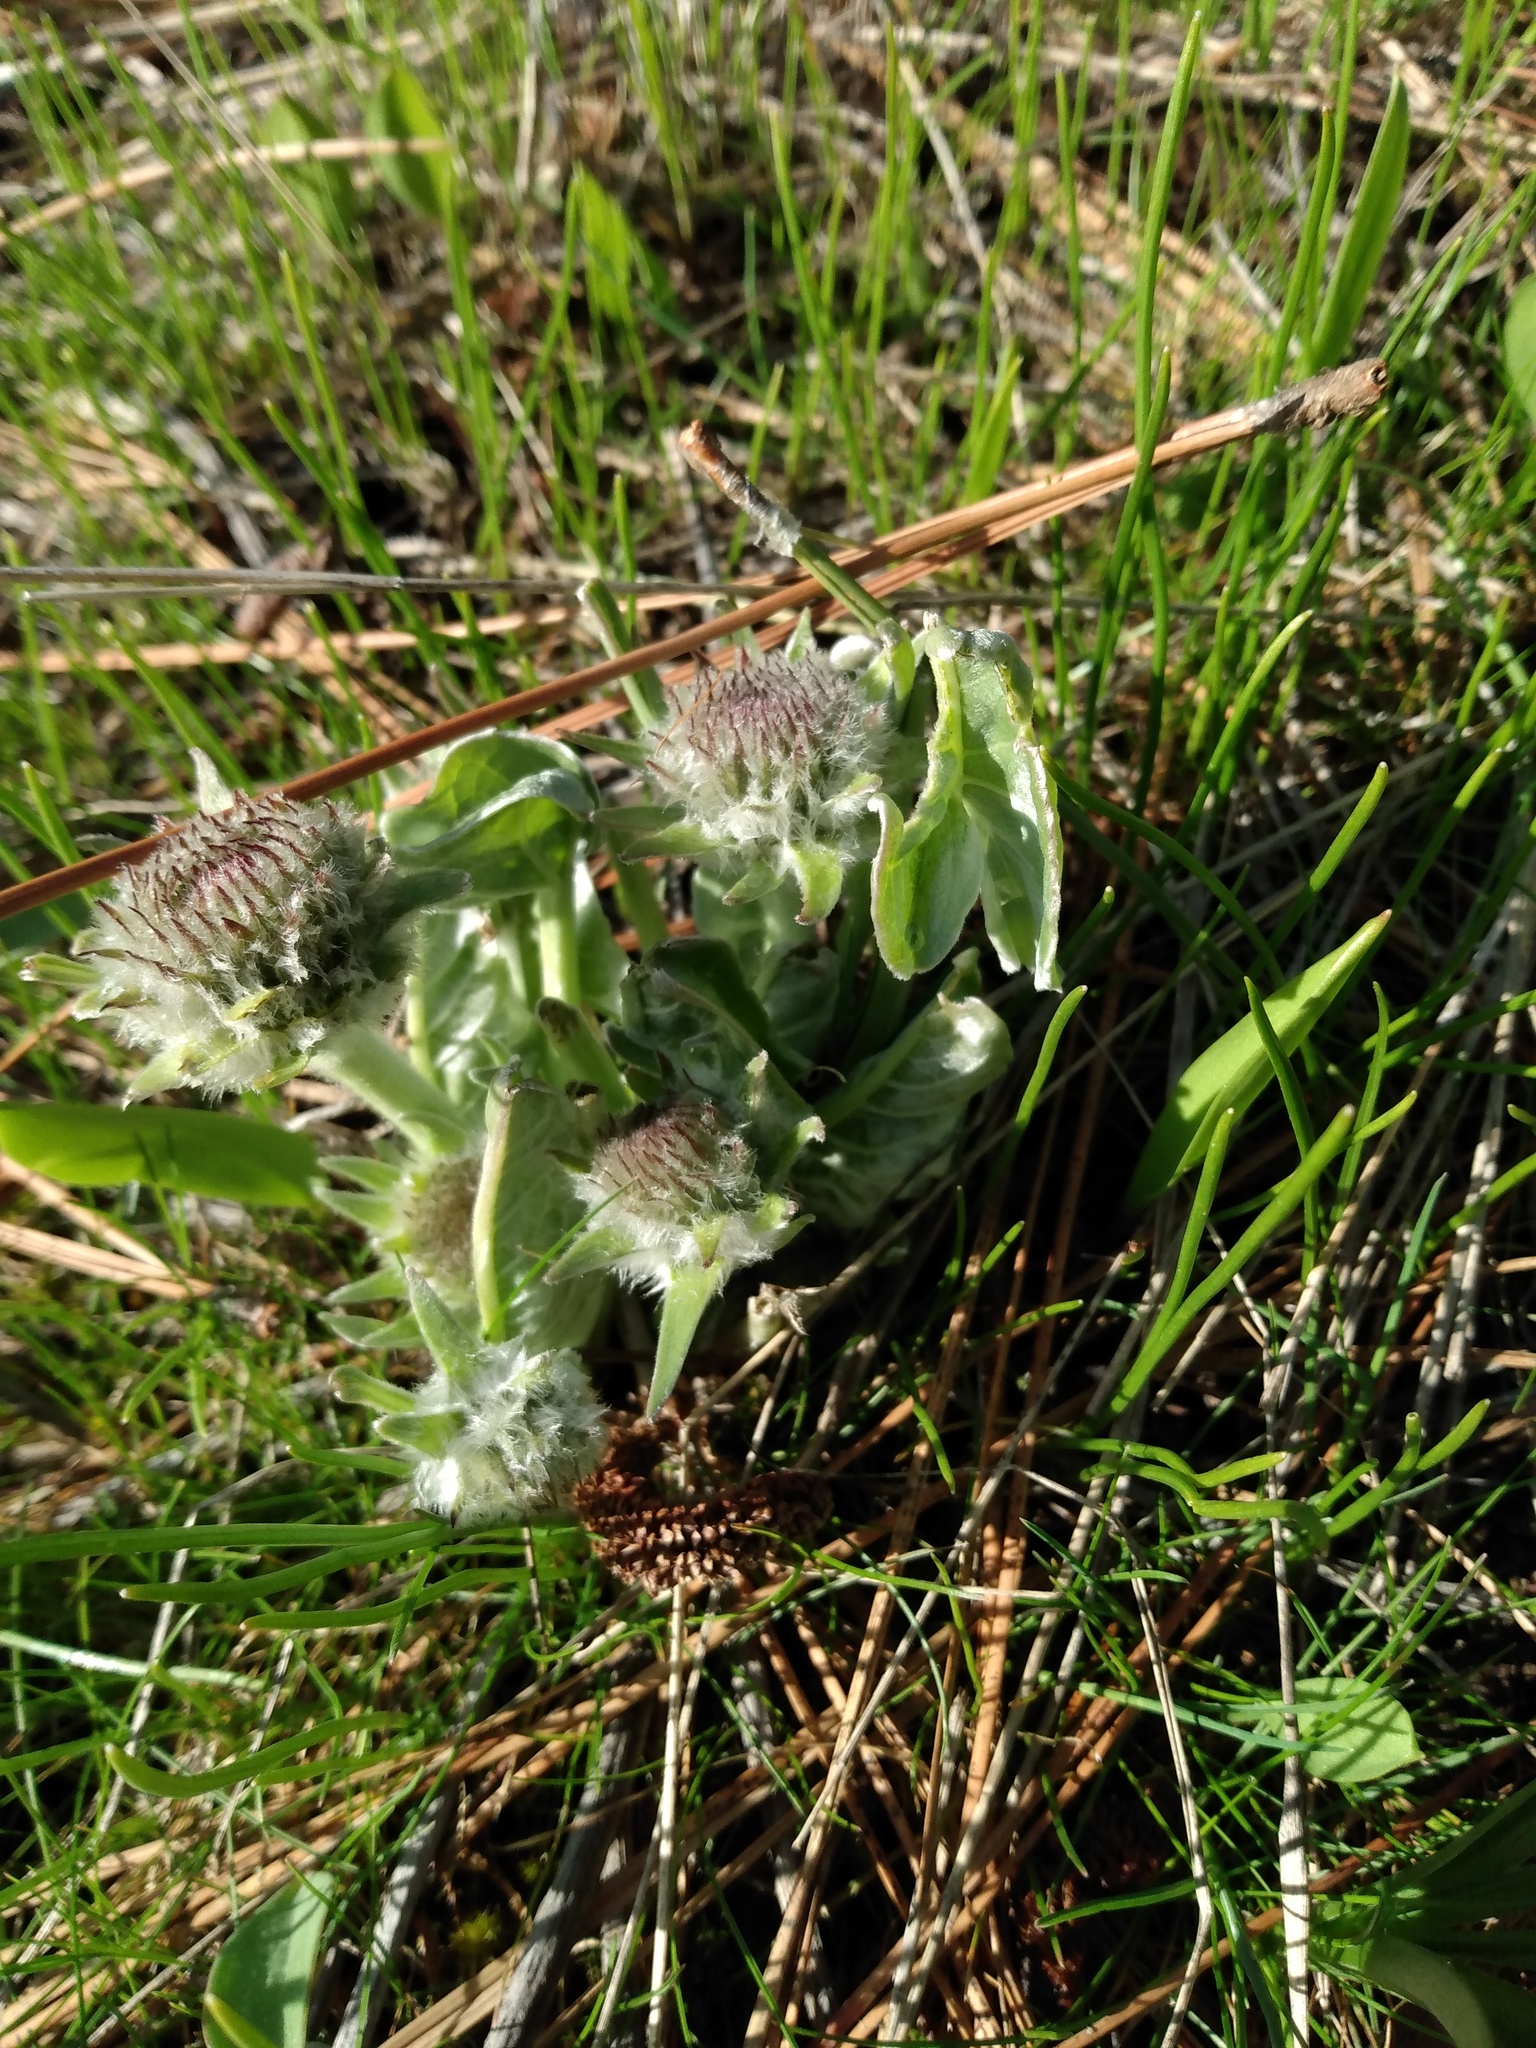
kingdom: Plantae
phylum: Tracheophyta
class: Magnoliopsida
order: Asterales
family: Asteraceae
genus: Wyethia
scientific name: Wyethia sagittata
